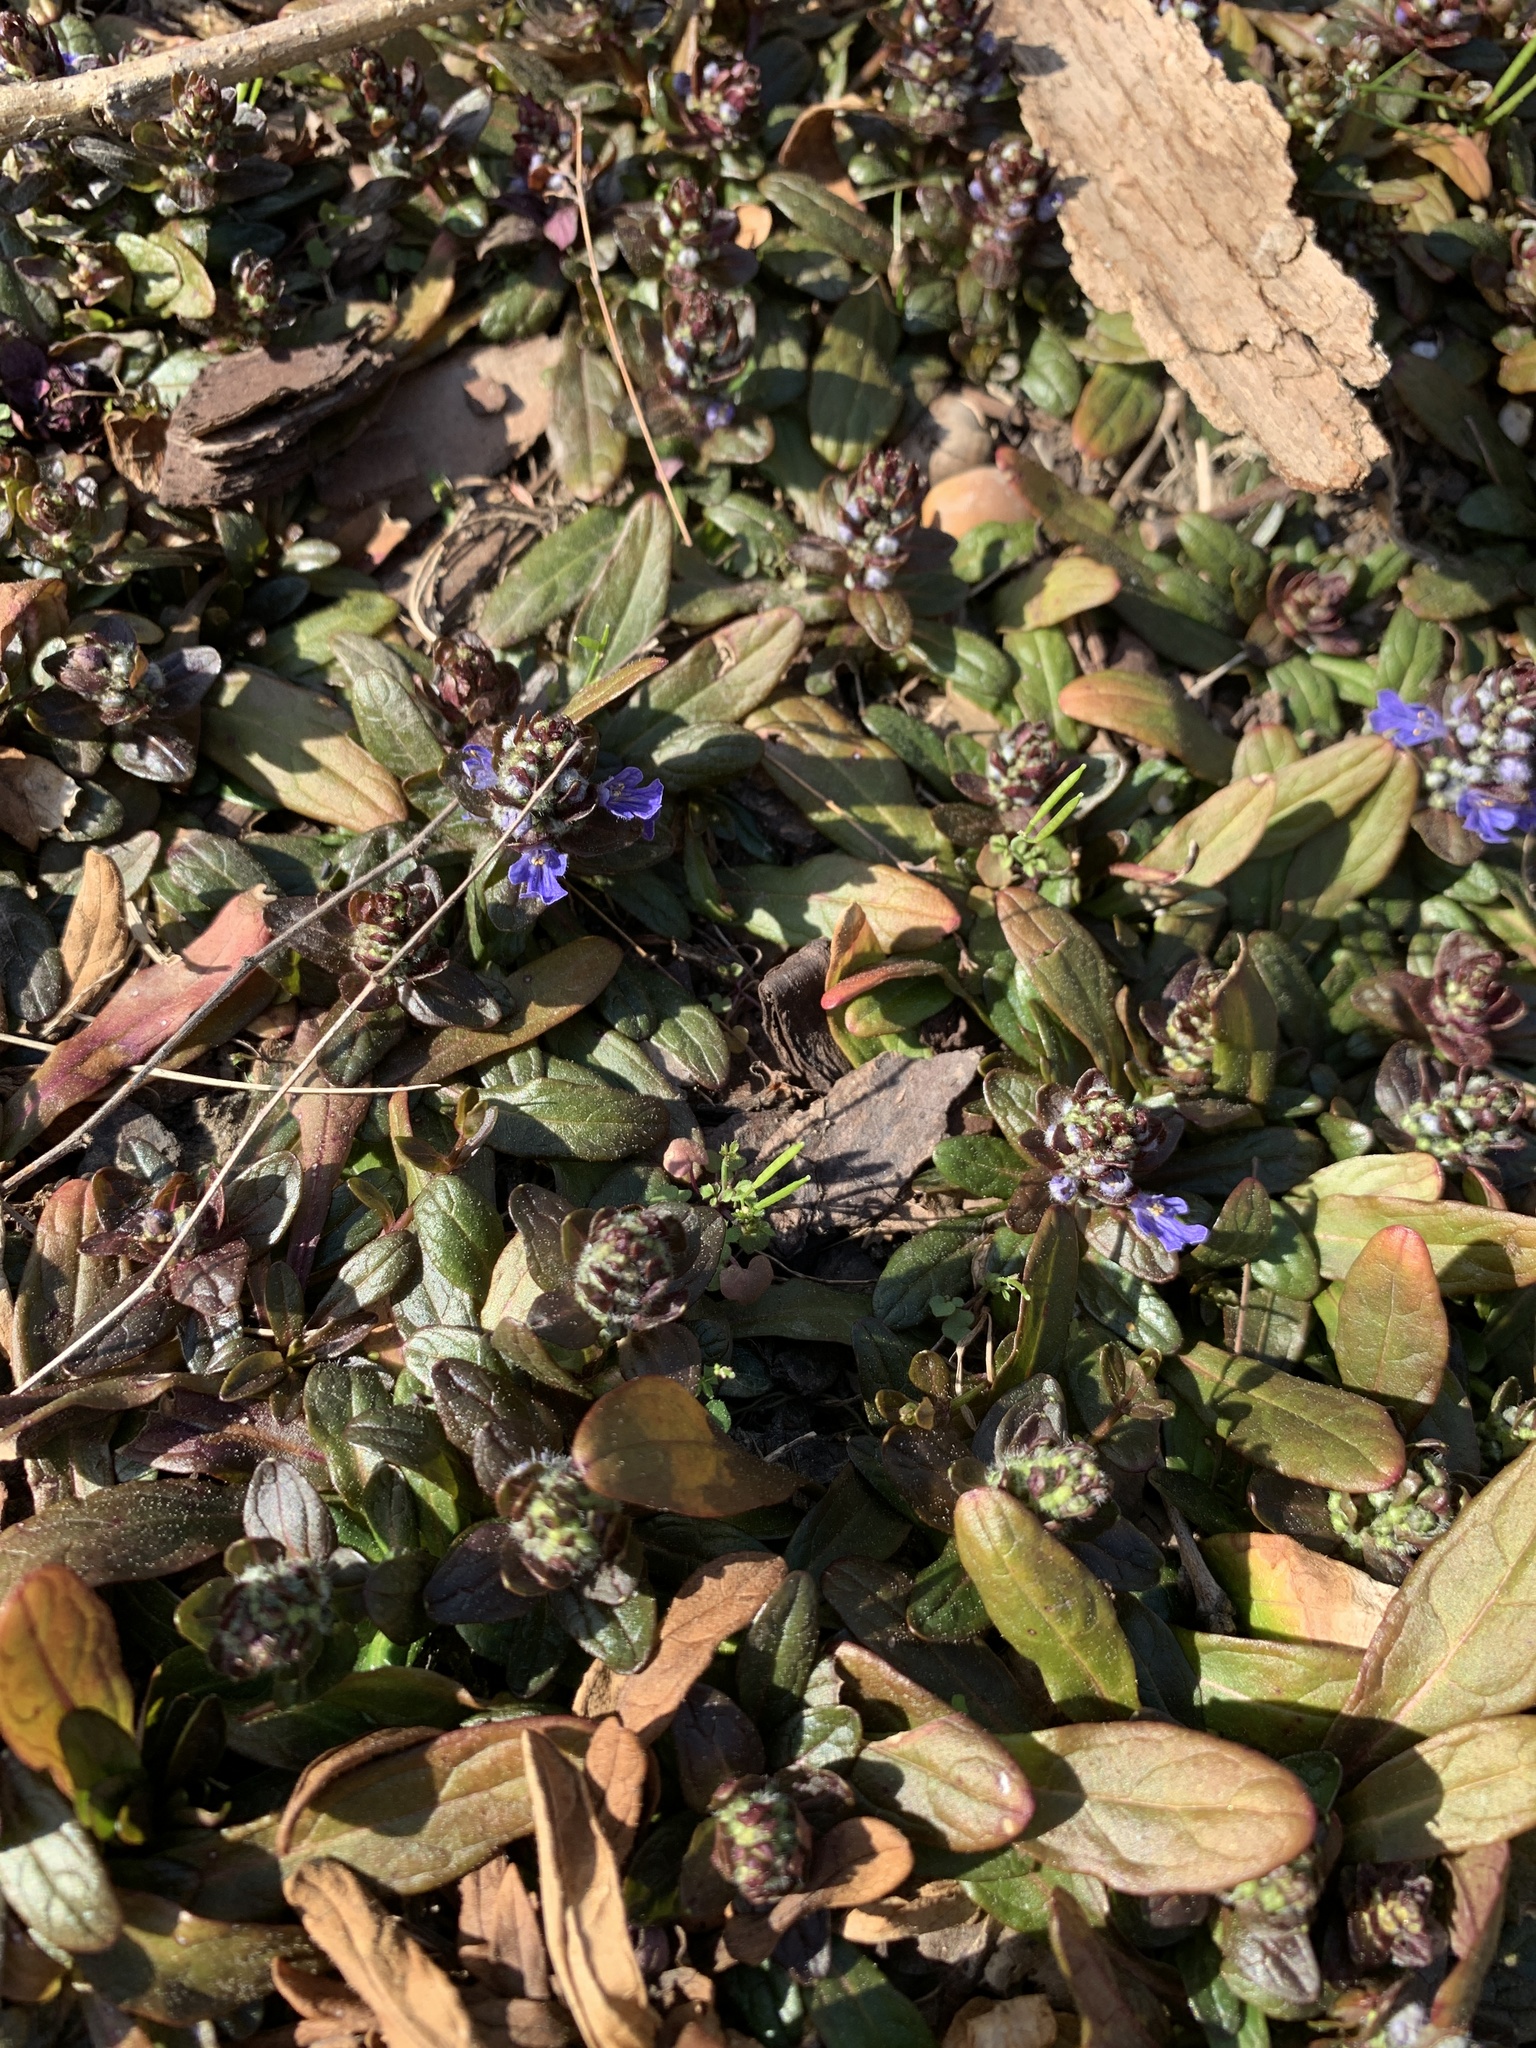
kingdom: Plantae
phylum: Tracheophyta
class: Magnoliopsida
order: Lamiales
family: Lamiaceae
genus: Ajuga
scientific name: Ajuga reptans
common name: Bugle
